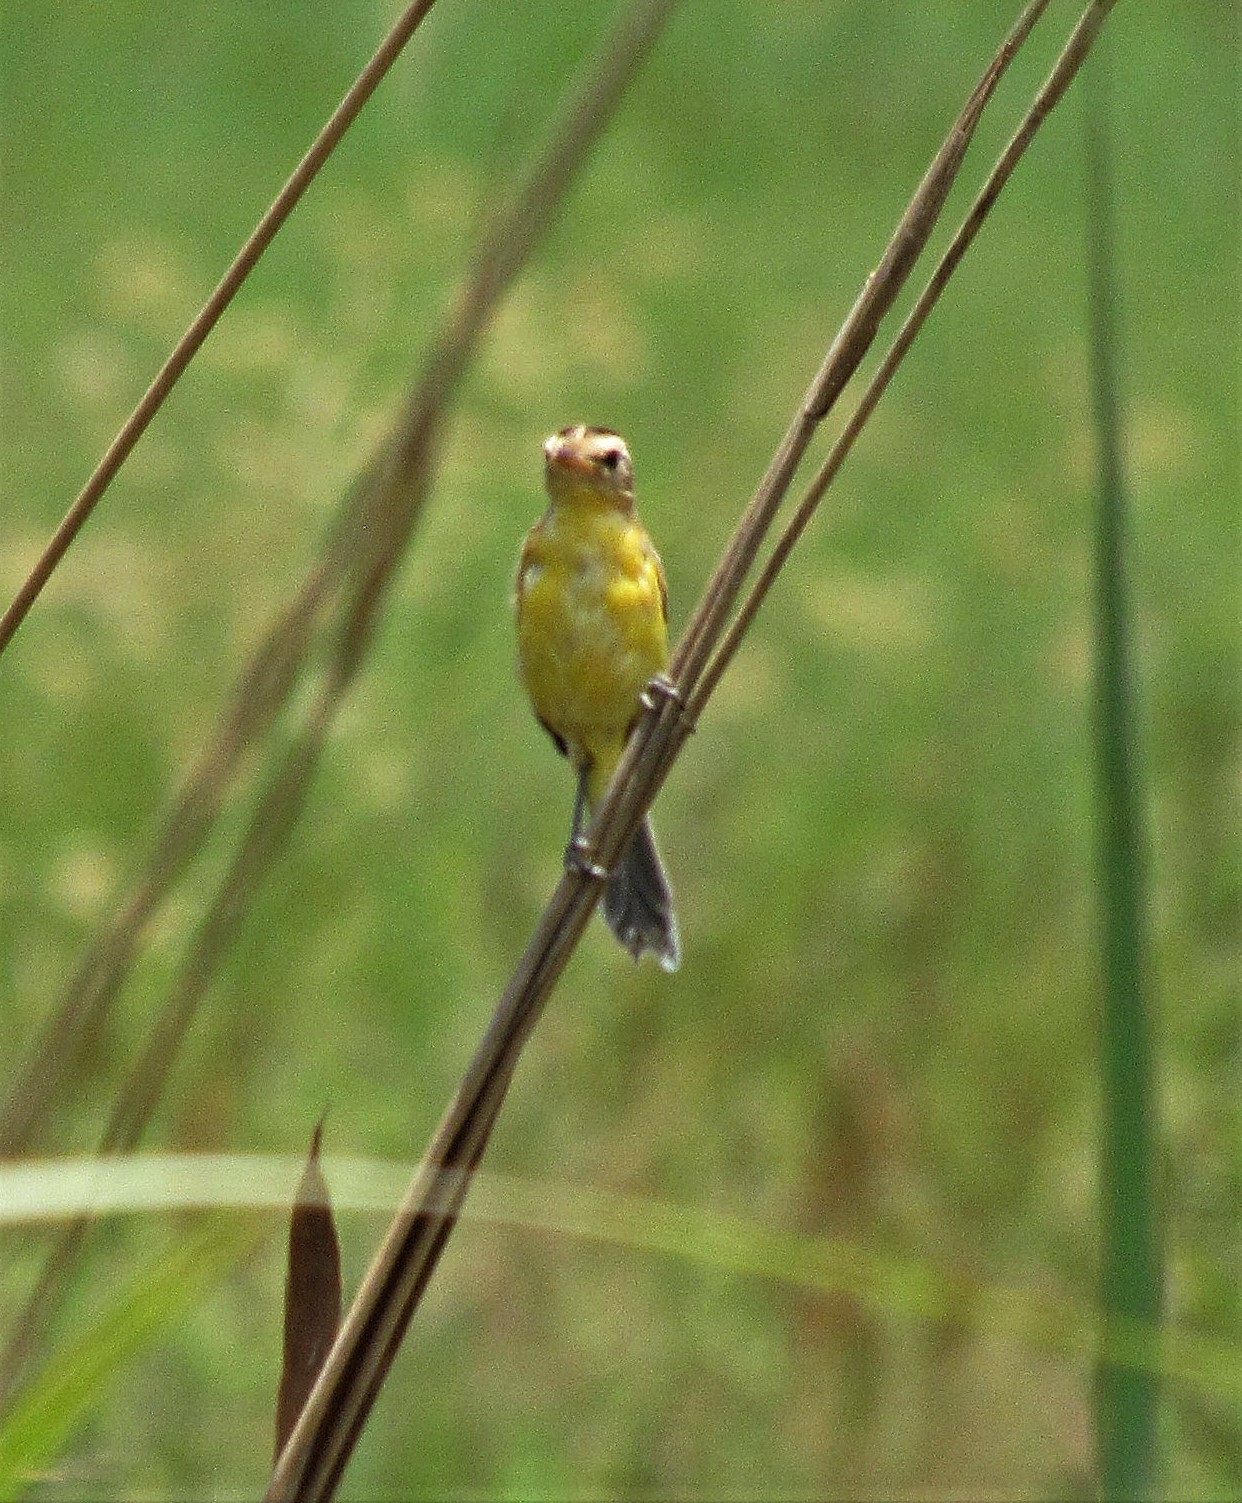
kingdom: Animalia
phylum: Chordata
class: Aves
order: Passeriformes
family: Tyrannidae
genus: Pseudocolopteryx
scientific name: Pseudocolopteryx sclateri
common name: Crested doradito
